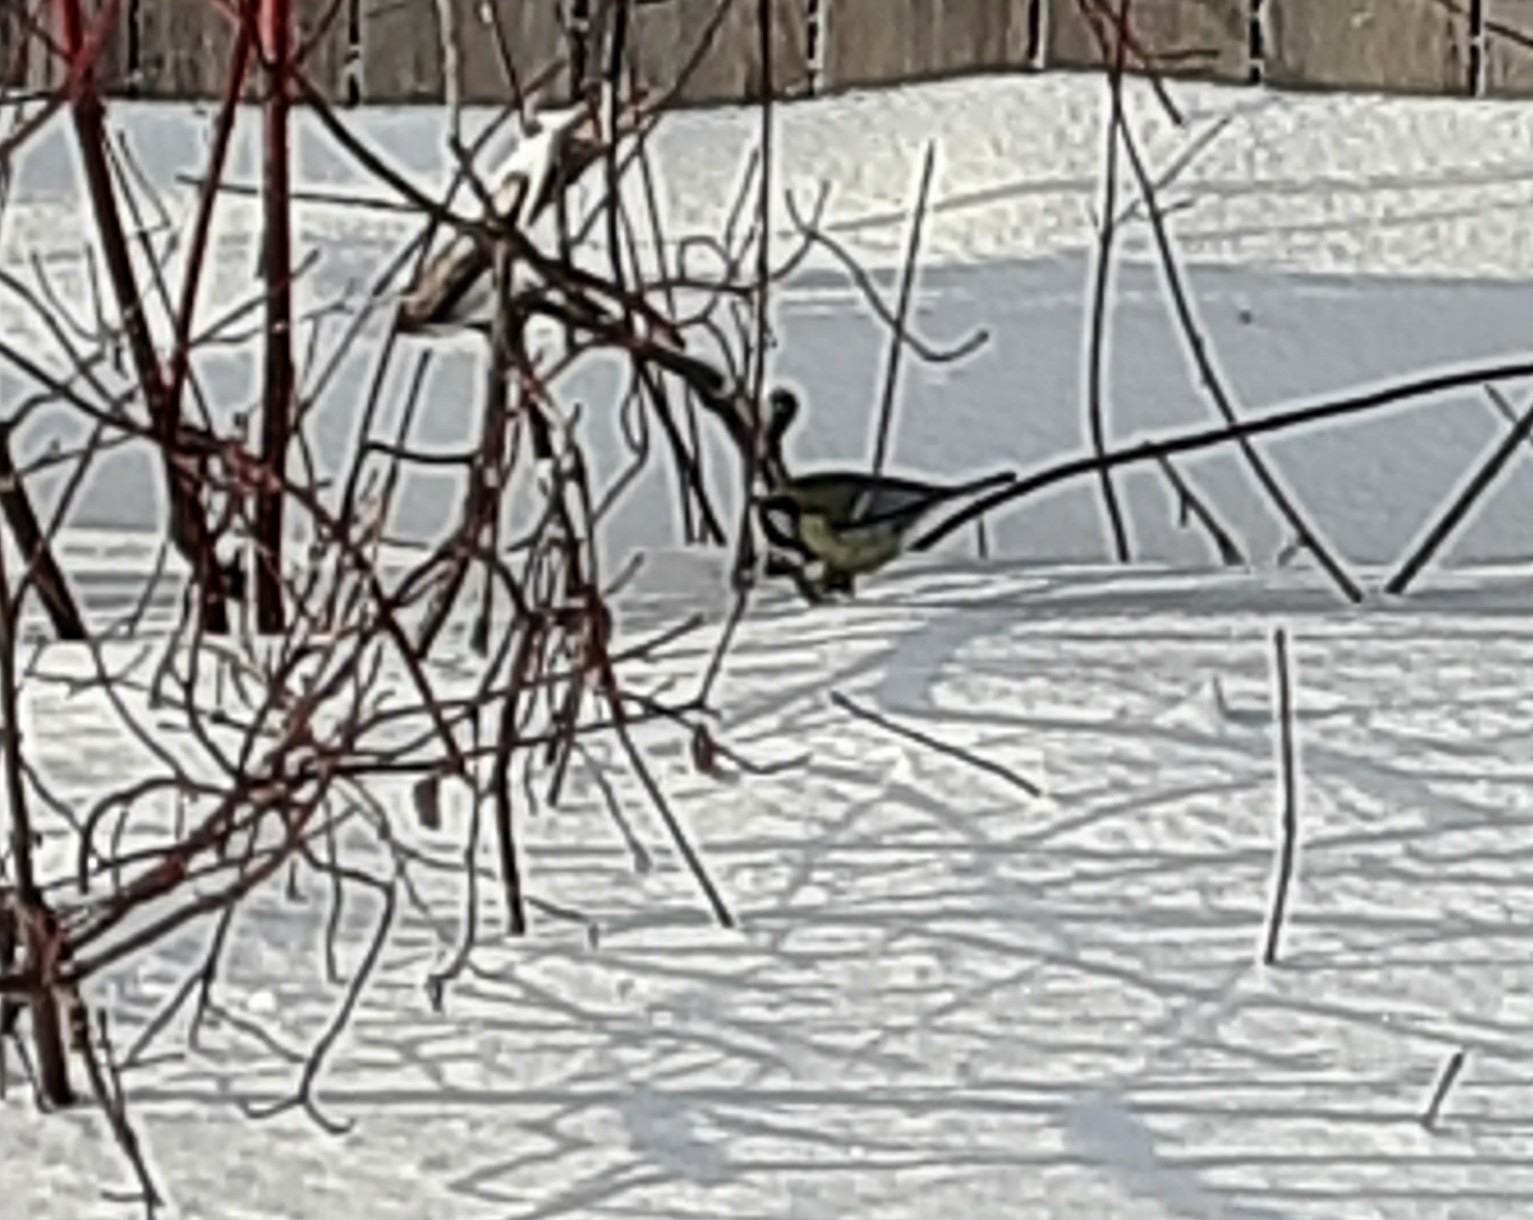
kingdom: Animalia
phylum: Chordata
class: Aves
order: Passeriformes
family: Paridae
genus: Parus
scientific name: Parus major
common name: Great tit
